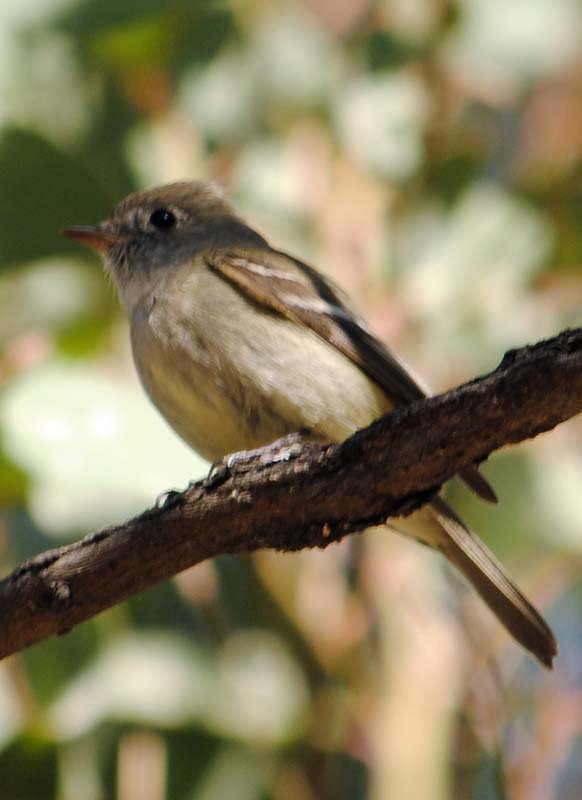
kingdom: Animalia
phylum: Chordata
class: Aves
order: Passeriformes
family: Tyrannidae
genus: Empidonax
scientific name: Empidonax hammondii
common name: Hammond's flycatcher
